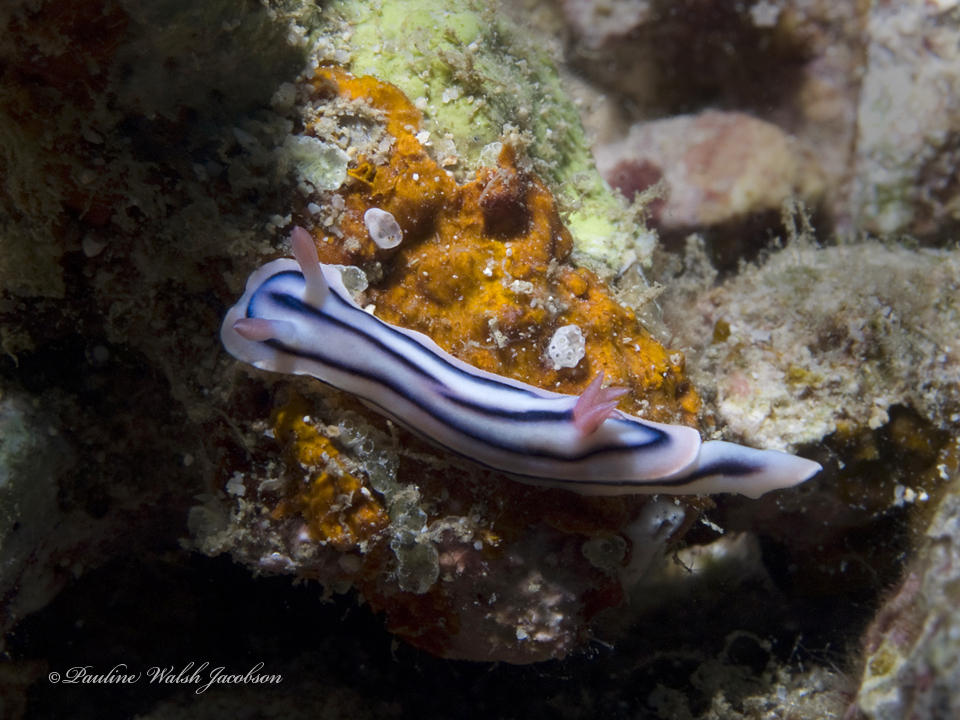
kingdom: Animalia
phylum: Mollusca
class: Gastropoda
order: Nudibranchia
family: Chromodorididae
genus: Chromodoris
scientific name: Chromodoris lochi
